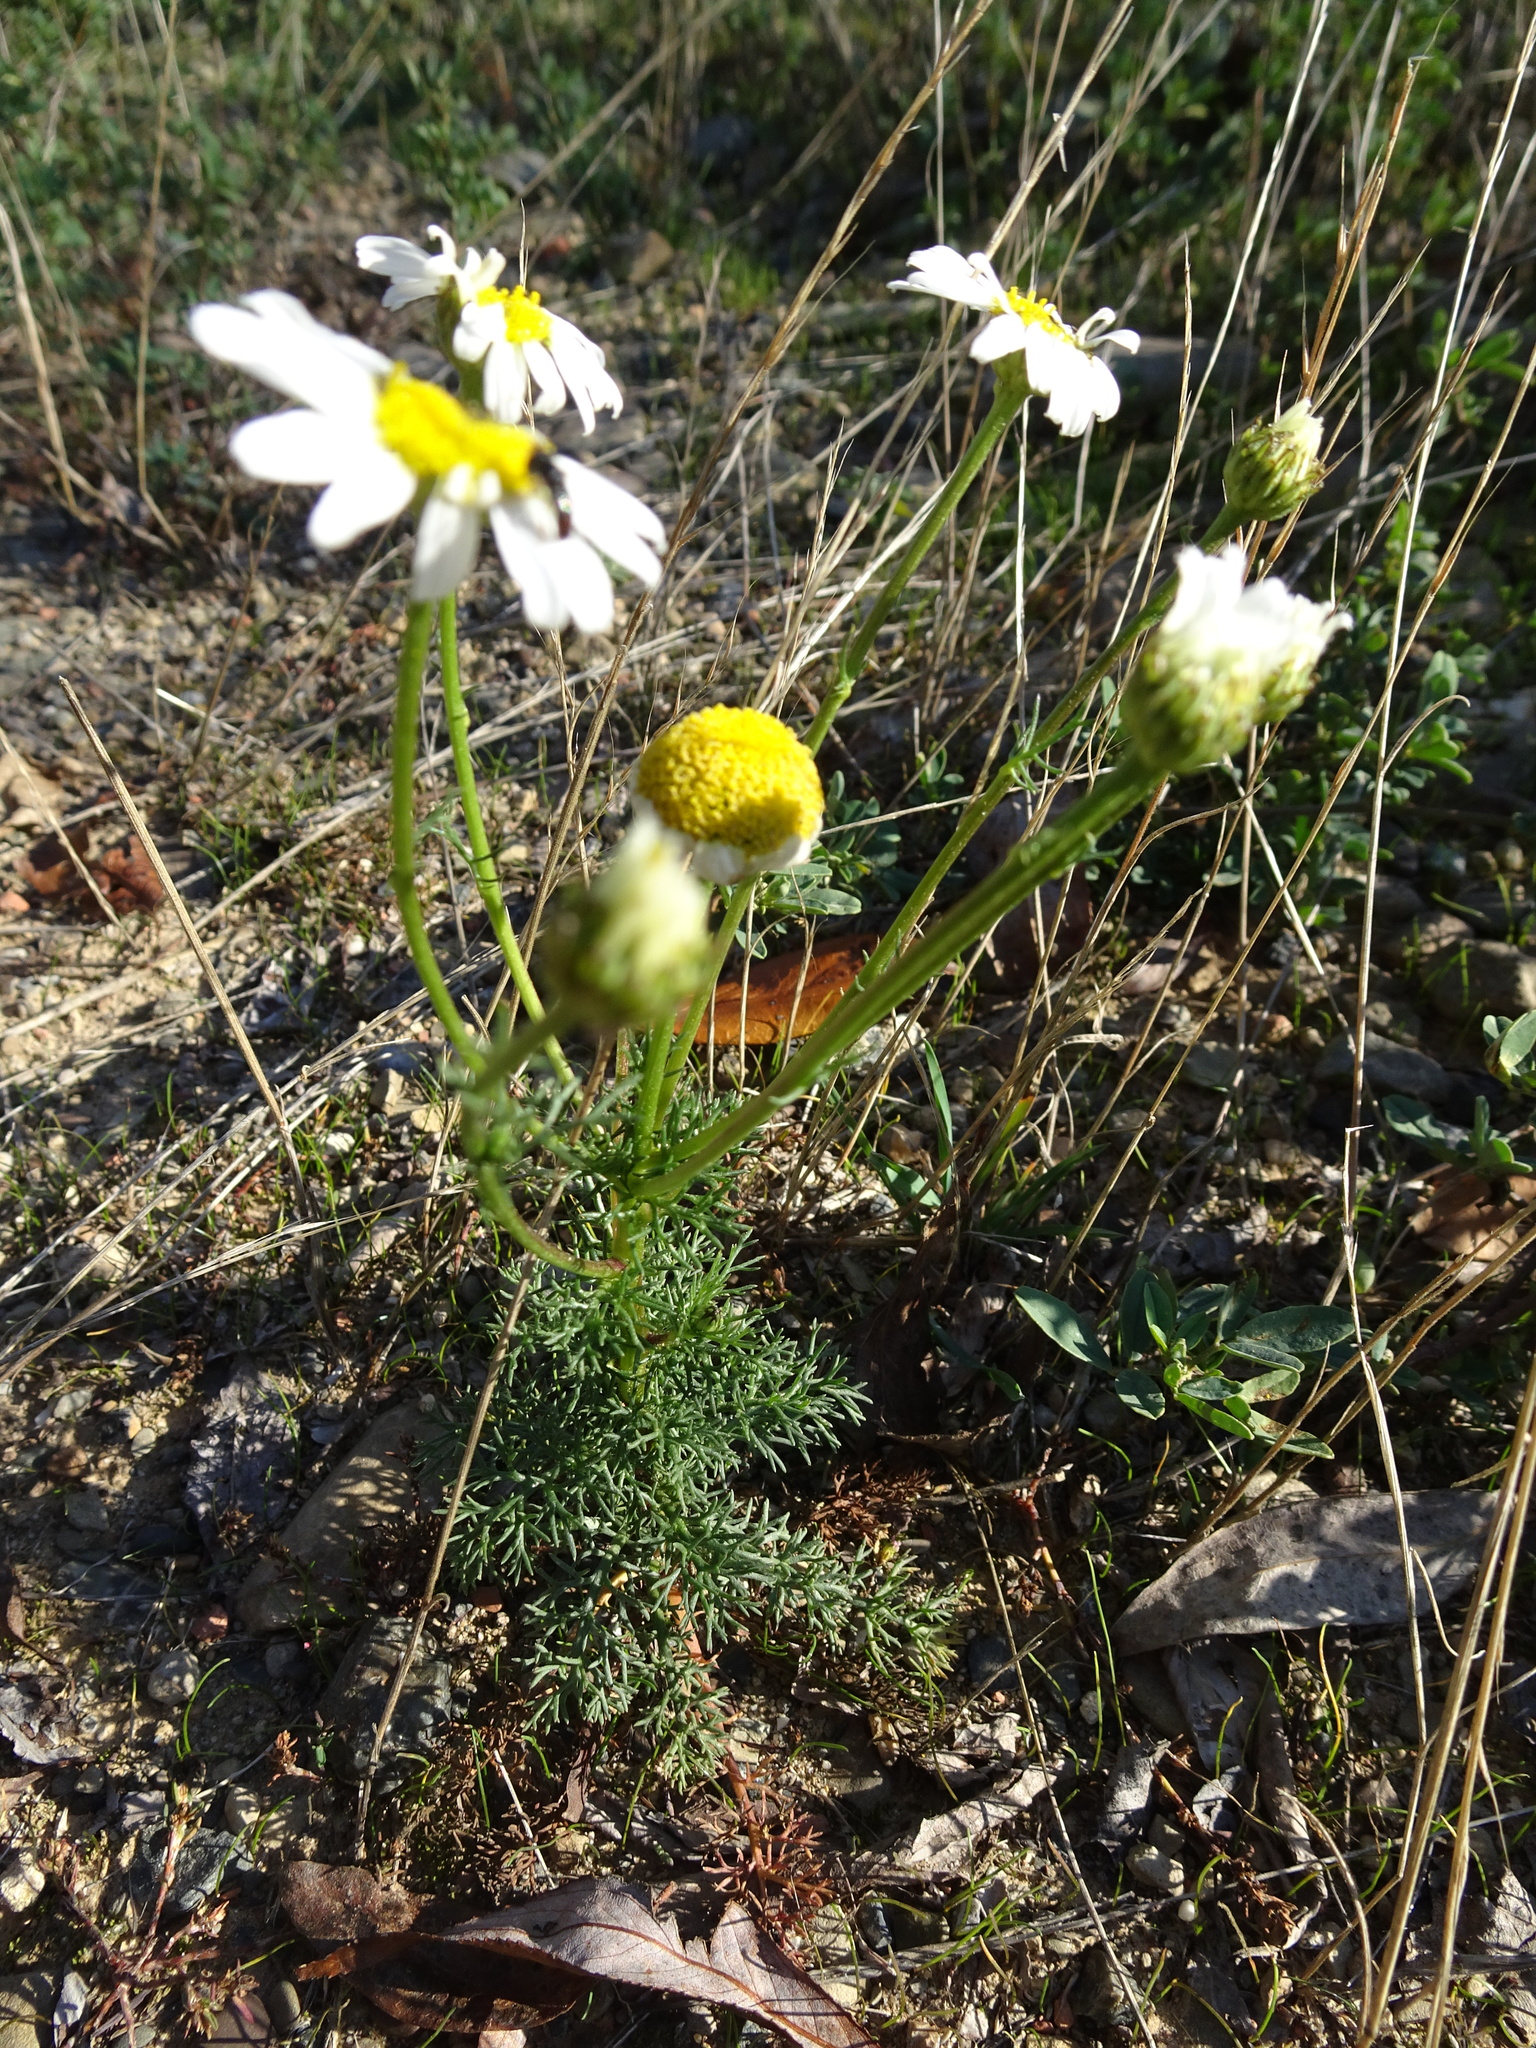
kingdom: Plantae
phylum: Tracheophyta
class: Magnoliopsida
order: Asterales
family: Asteraceae
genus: Tripleurospermum
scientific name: Tripleurospermum inodorum
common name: Scentless mayweed
